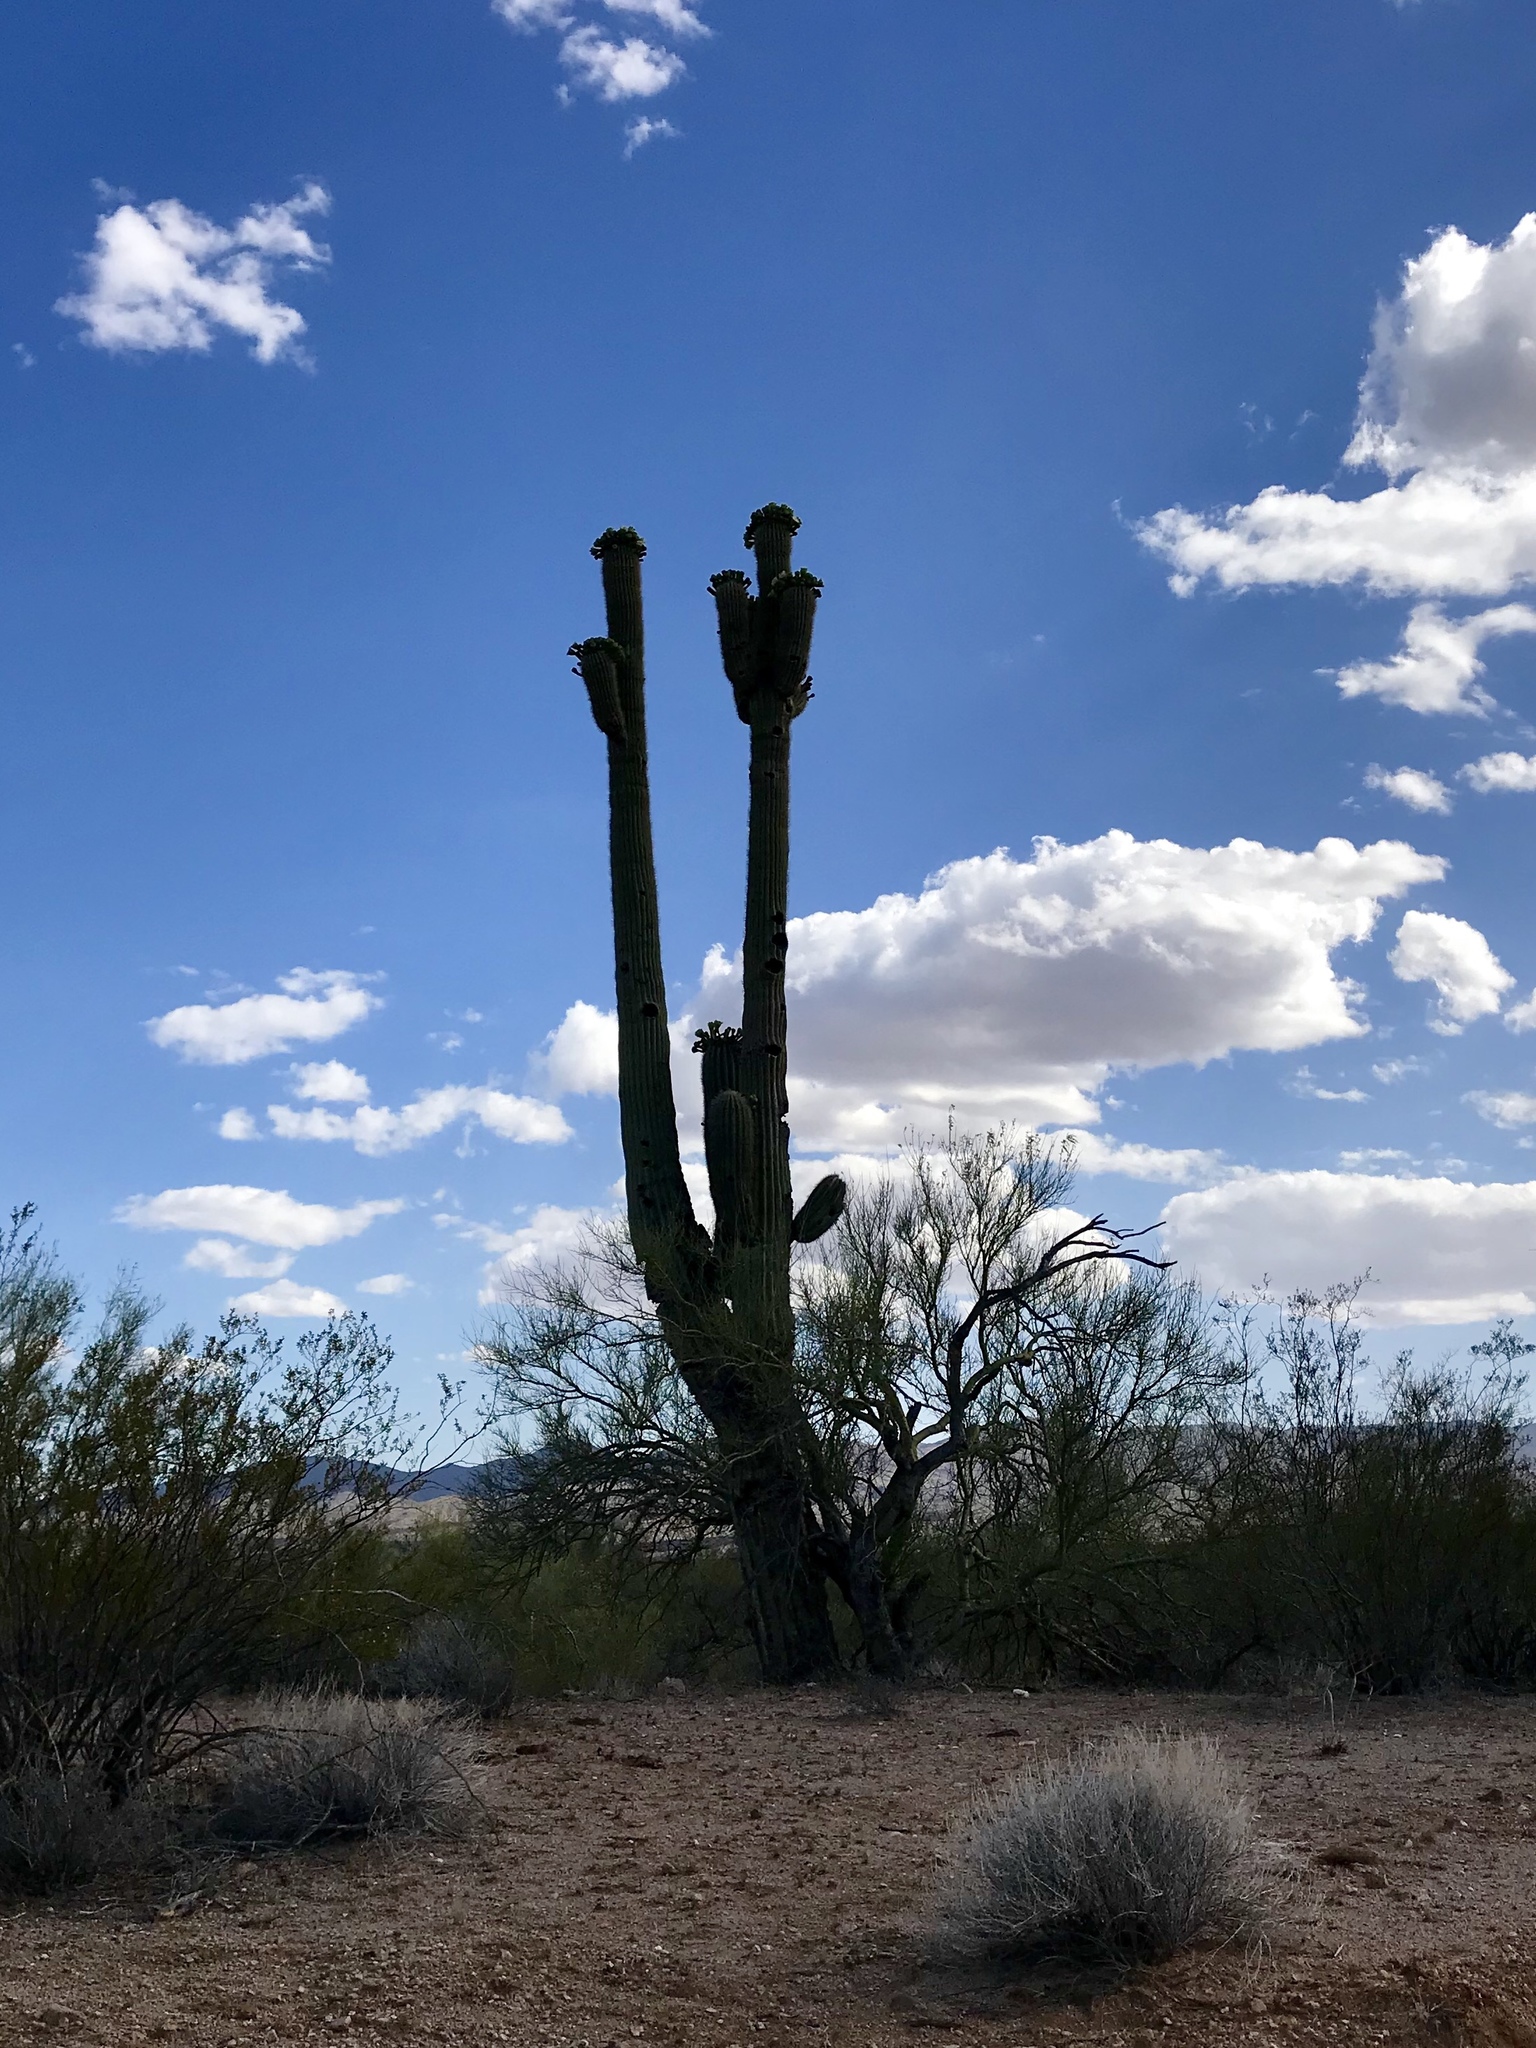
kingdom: Plantae
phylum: Tracheophyta
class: Magnoliopsida
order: Caryophyllales
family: Cactaceae
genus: Carnegiea
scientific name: Carnegiea gigantea
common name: Saguaro
